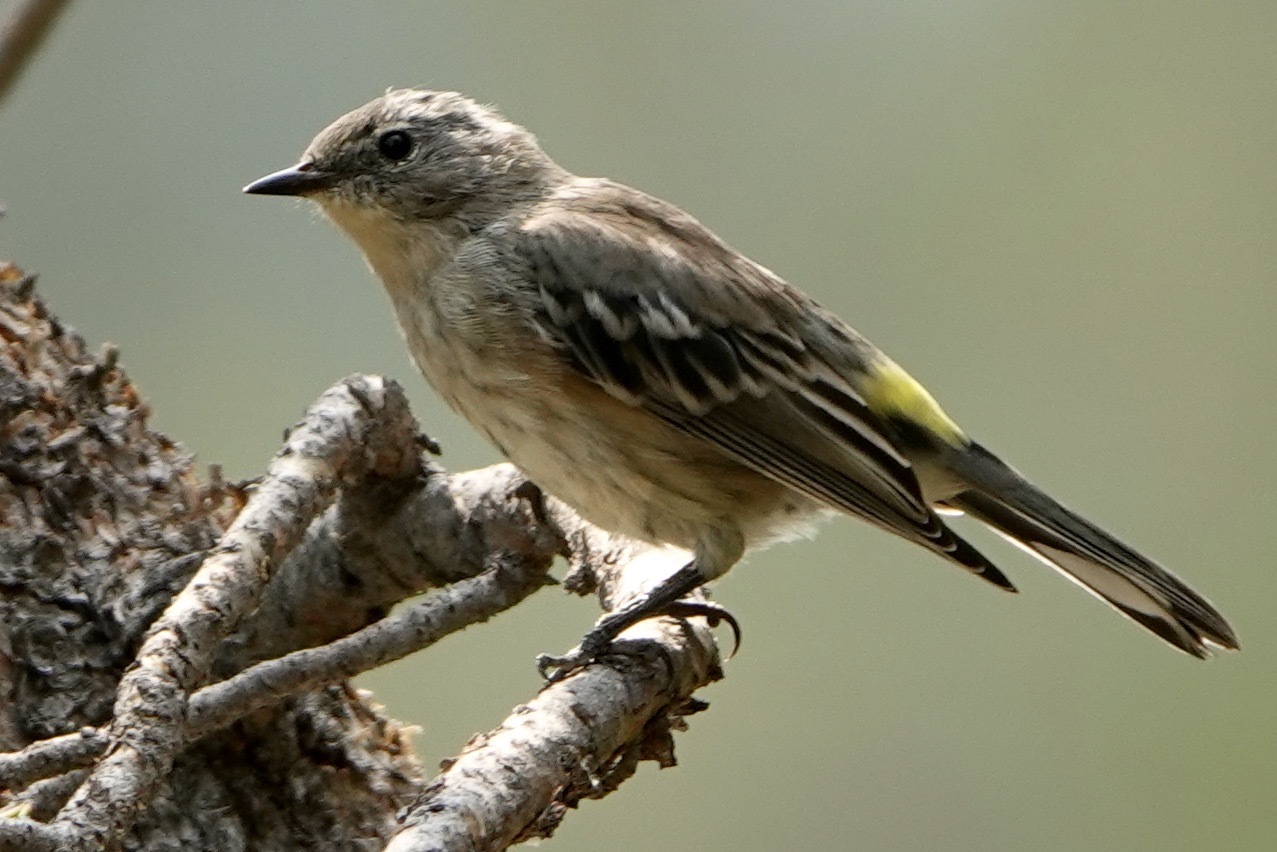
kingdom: Animalia
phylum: Chordata
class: Aves
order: Passeriformes
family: Parulidae
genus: Setophaga
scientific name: Setophaga auduboni
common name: Audubon's warbler
